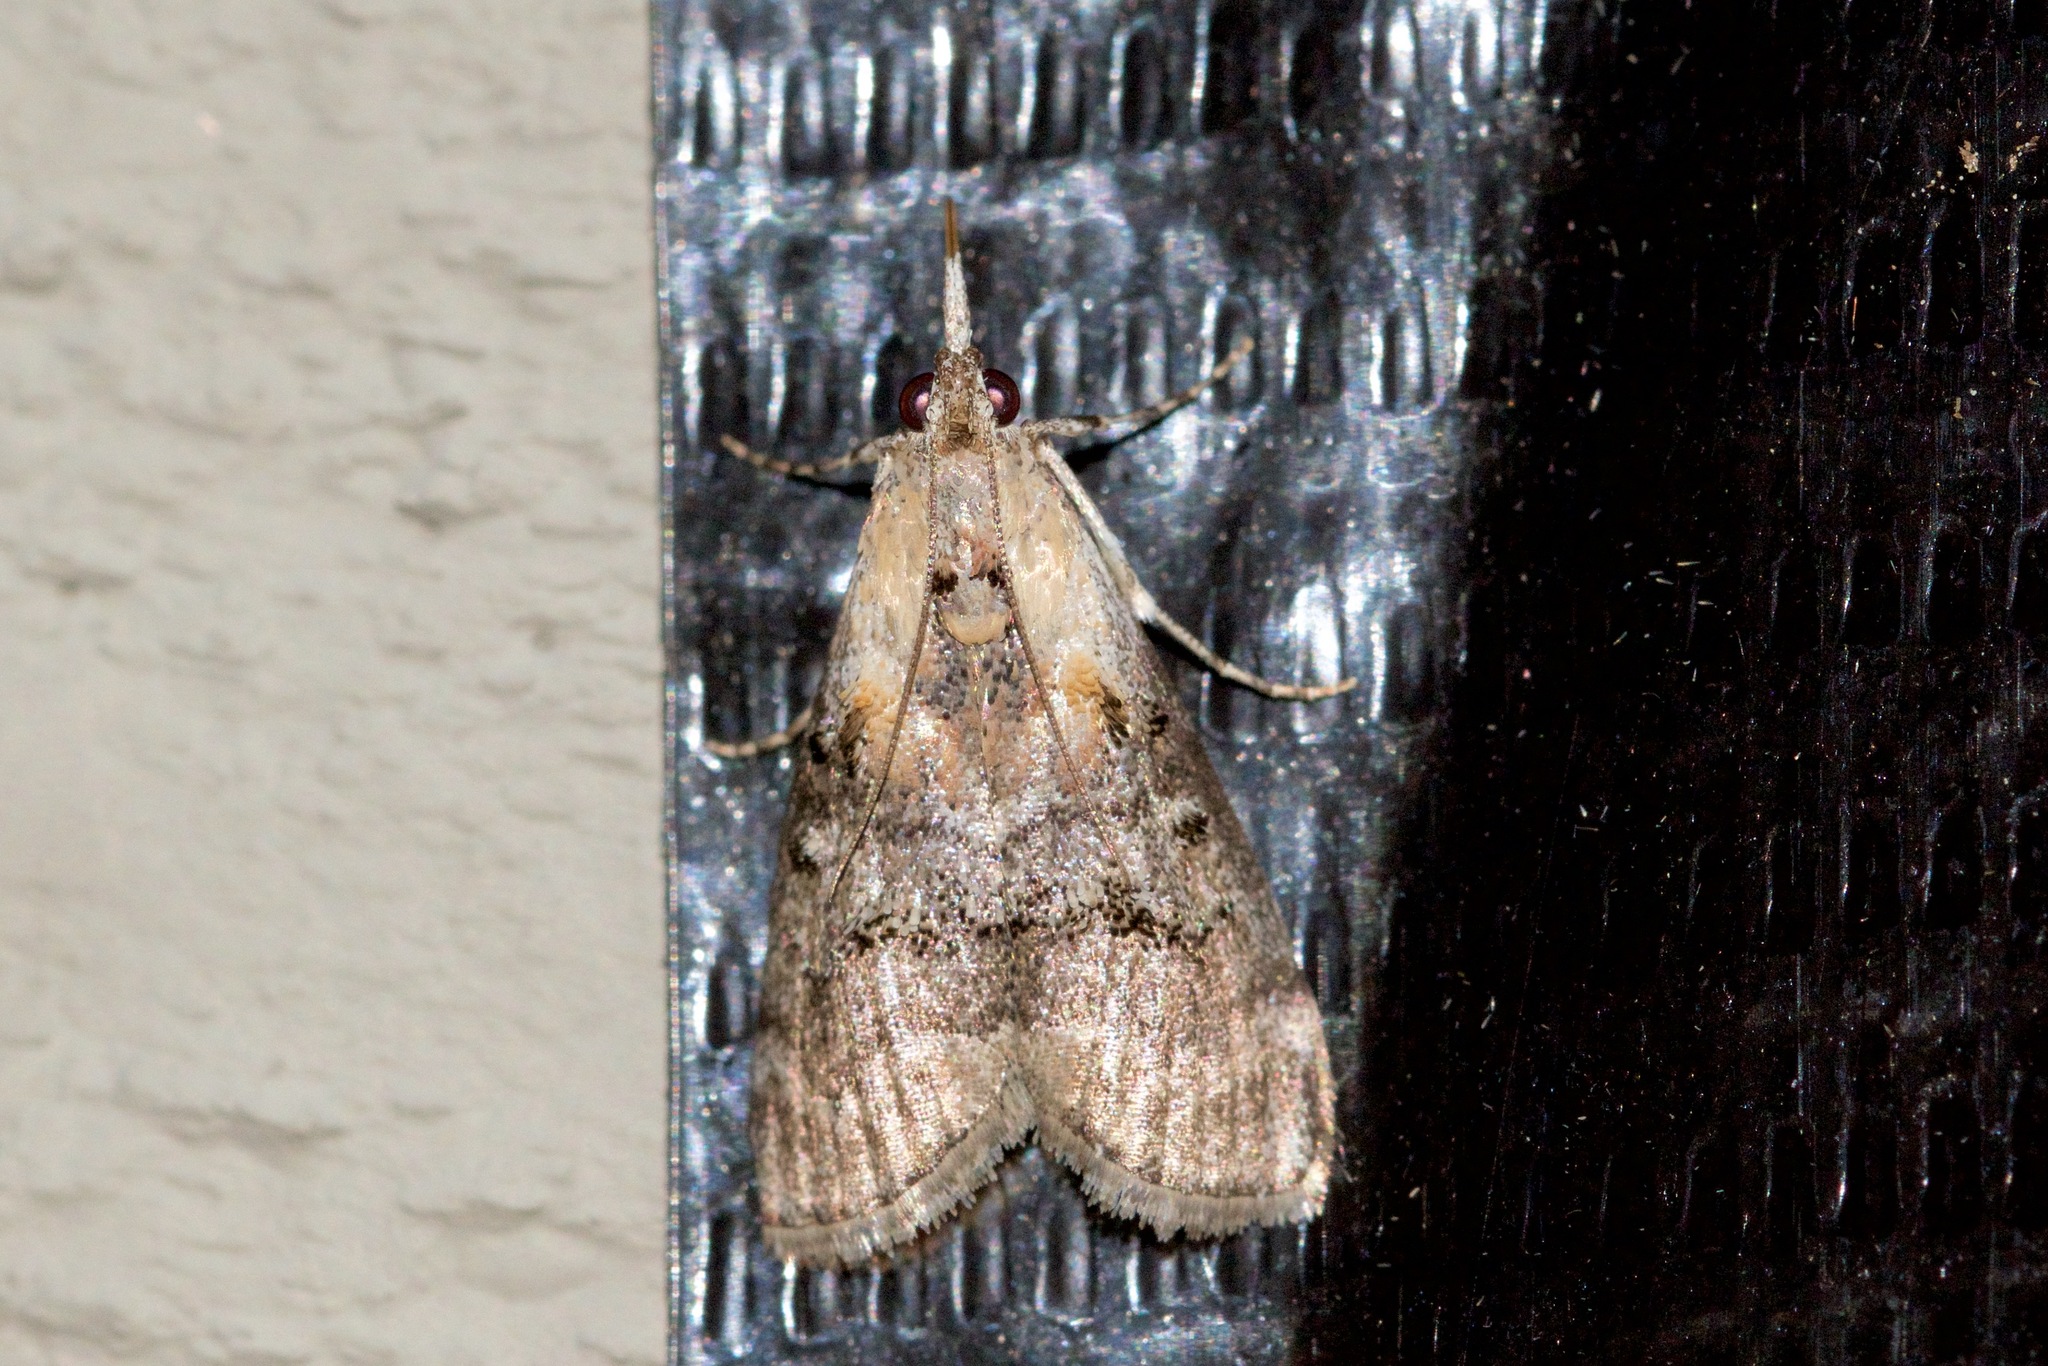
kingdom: Animalia
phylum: Arthropoda
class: Insecta
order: Lepidoptera
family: Pyralidae
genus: Pococera
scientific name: Pococera expandens
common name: Striped oak webworm moth
